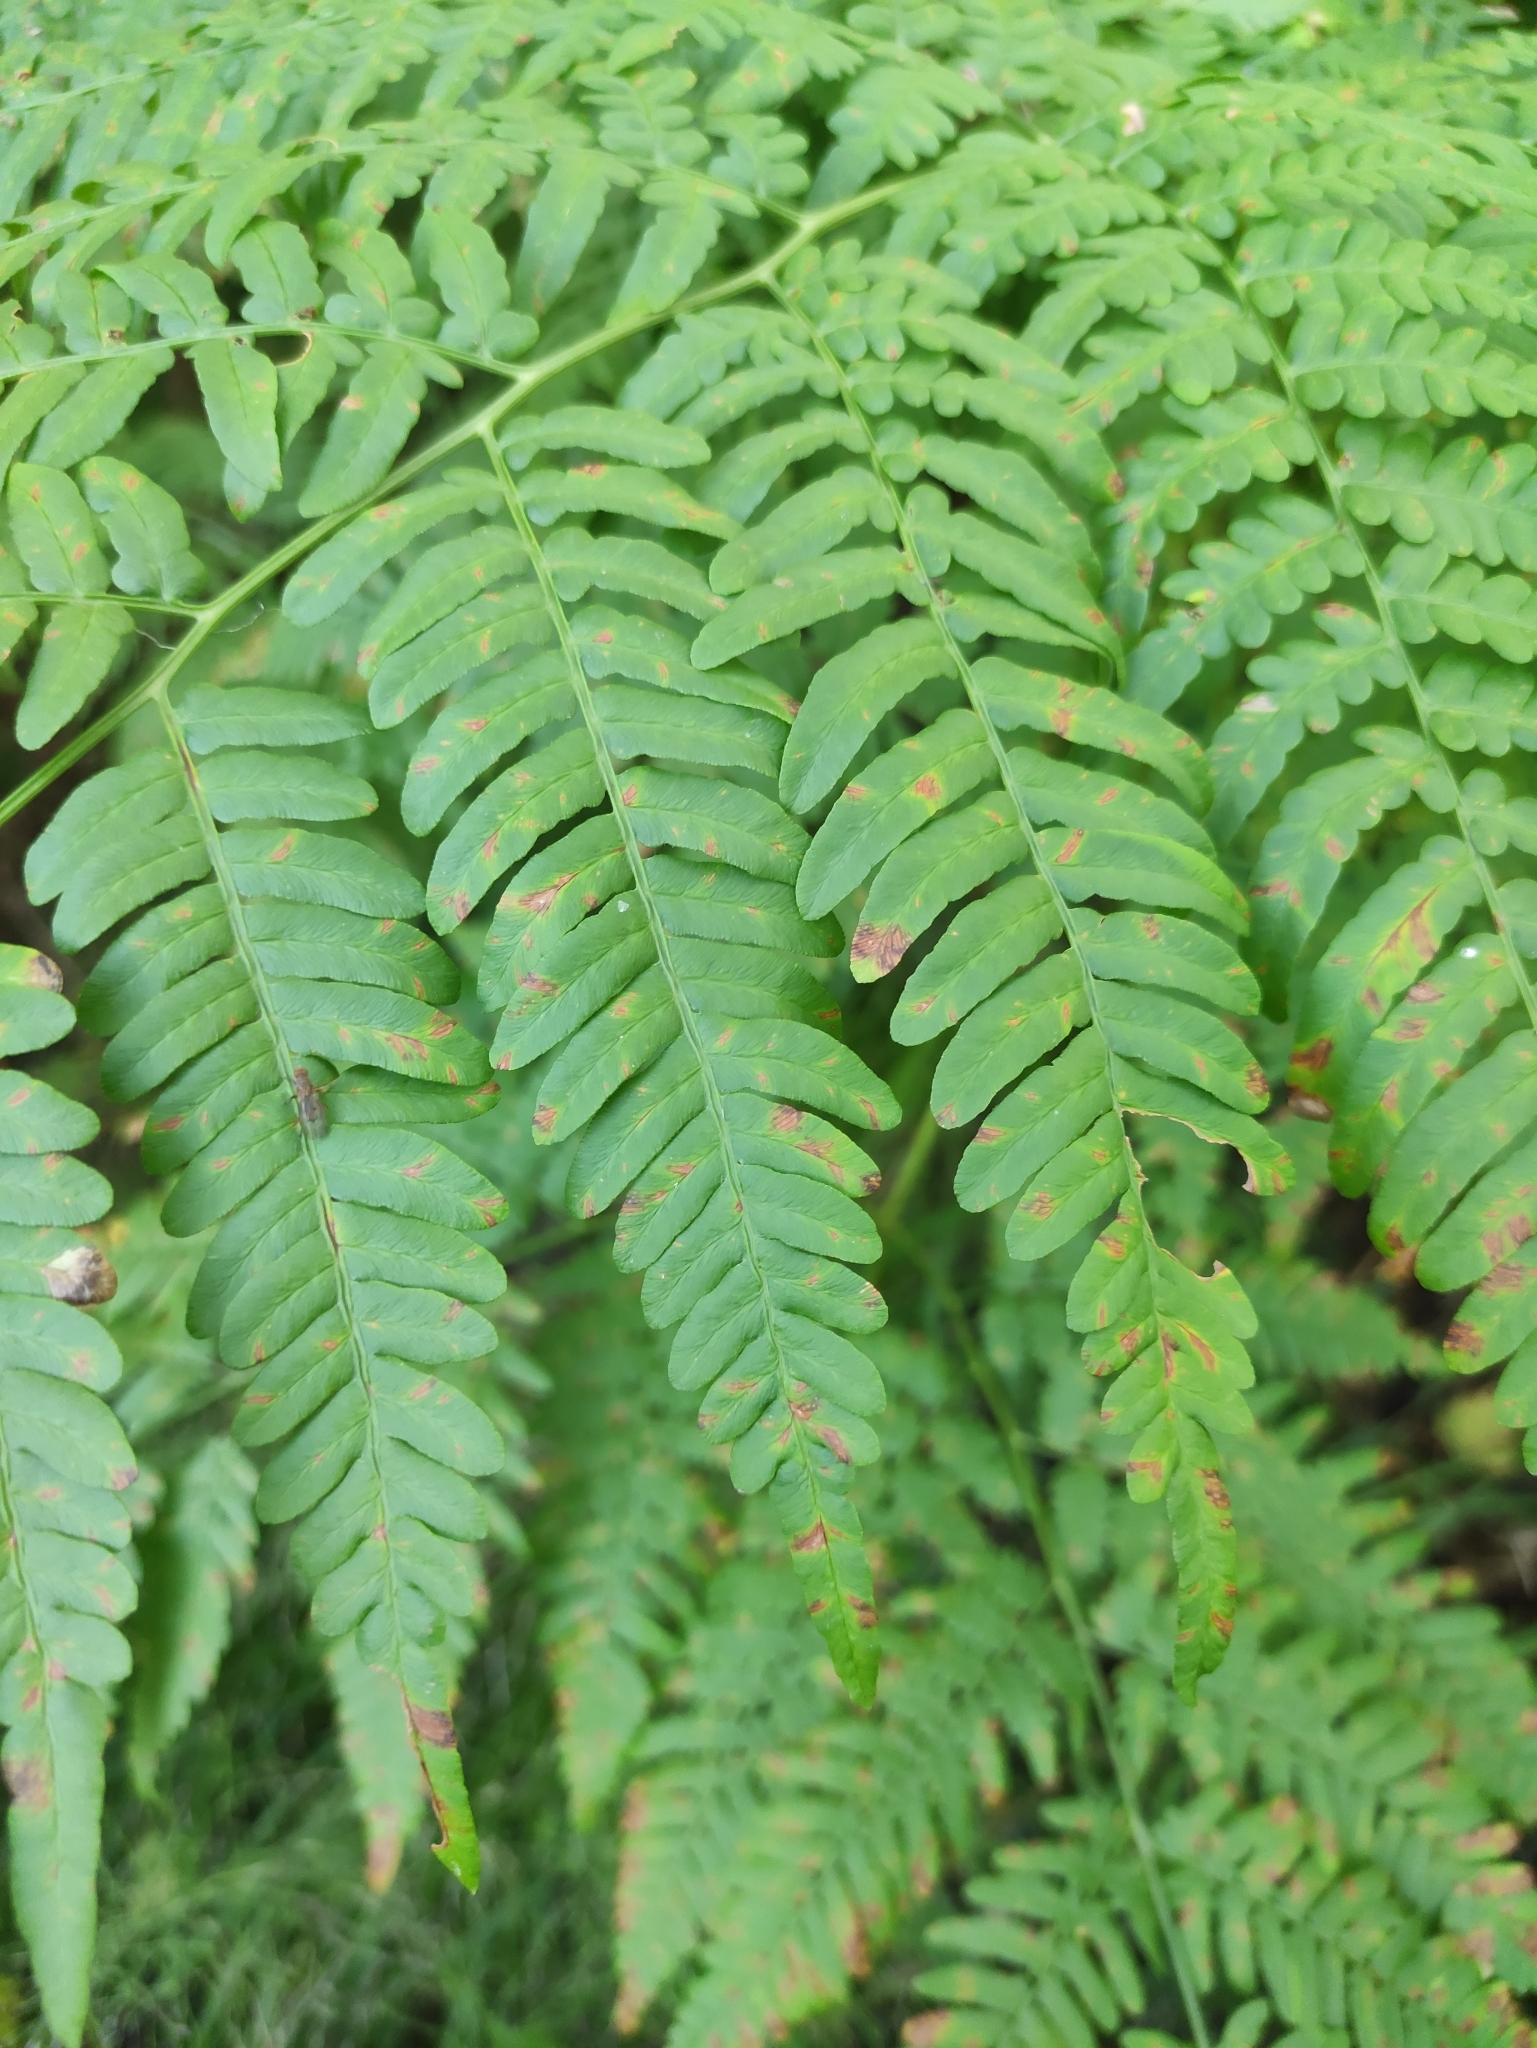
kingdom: Plantae
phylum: Tracheophyta
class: Polypodiopsida
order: Polypodiales
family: Dennstaedtiaceae
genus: Pteridium
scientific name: Pteridium aquilinum
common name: Bracken
